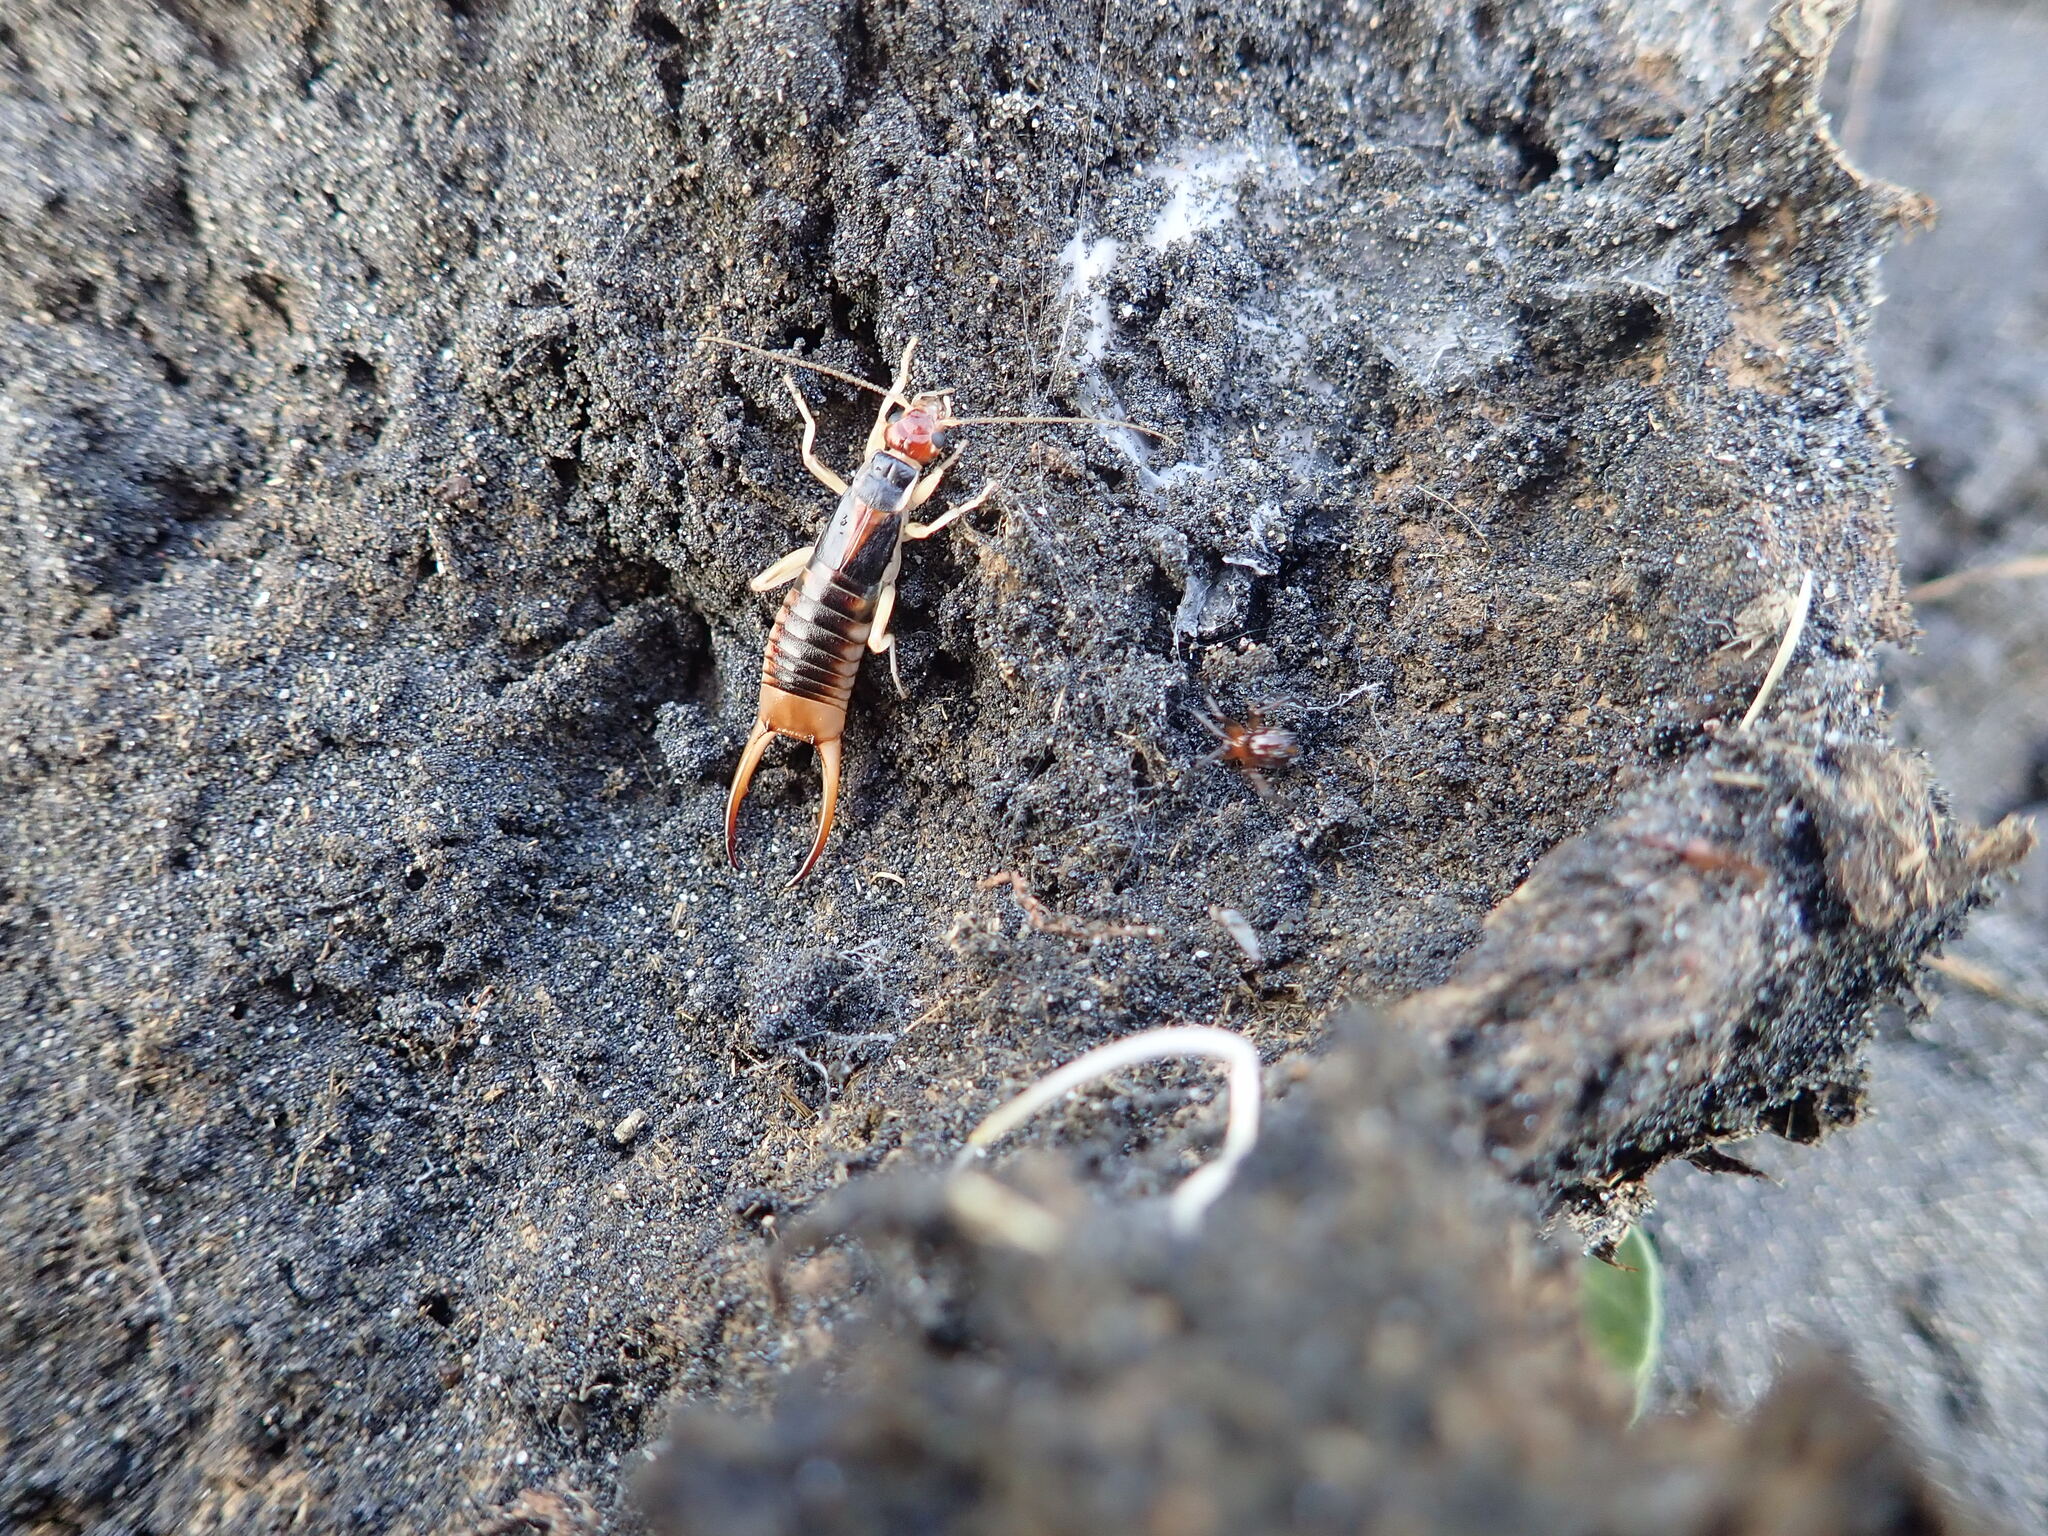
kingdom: Animalia
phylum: Arthropoda
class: Insecta
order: Dermaptera
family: Labiduridae
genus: Labidura
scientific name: Labidura riparia
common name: Striped earwig
